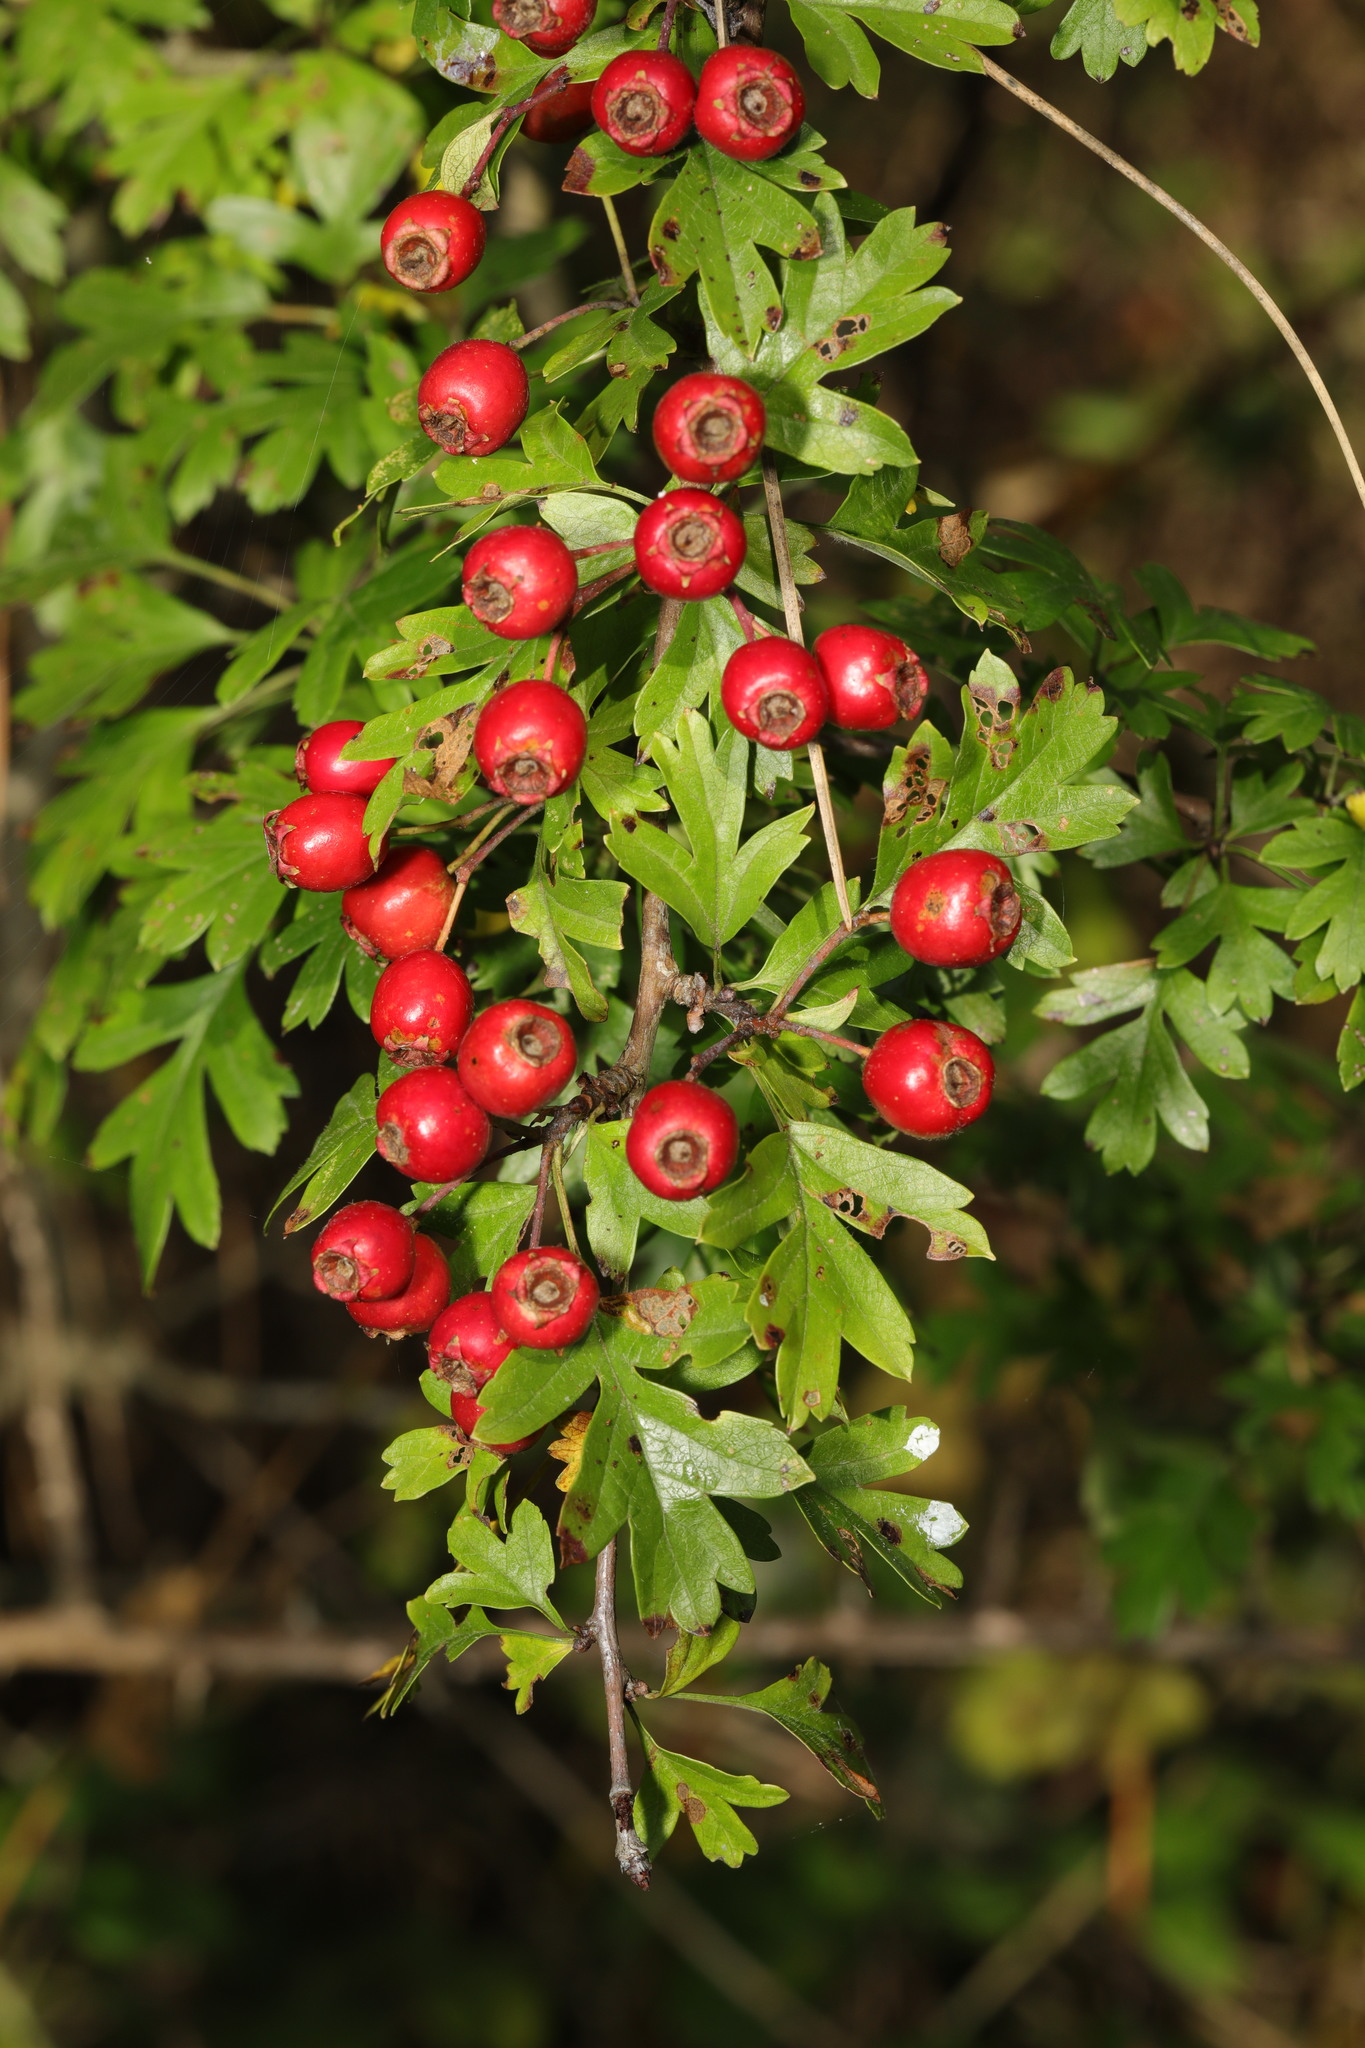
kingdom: Plantae
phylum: Tracheophyta
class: Magnoliopsida
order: Rosales
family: Rosaceae
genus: Crataegus
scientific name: Crataegus monogyna
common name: Hawthorn
